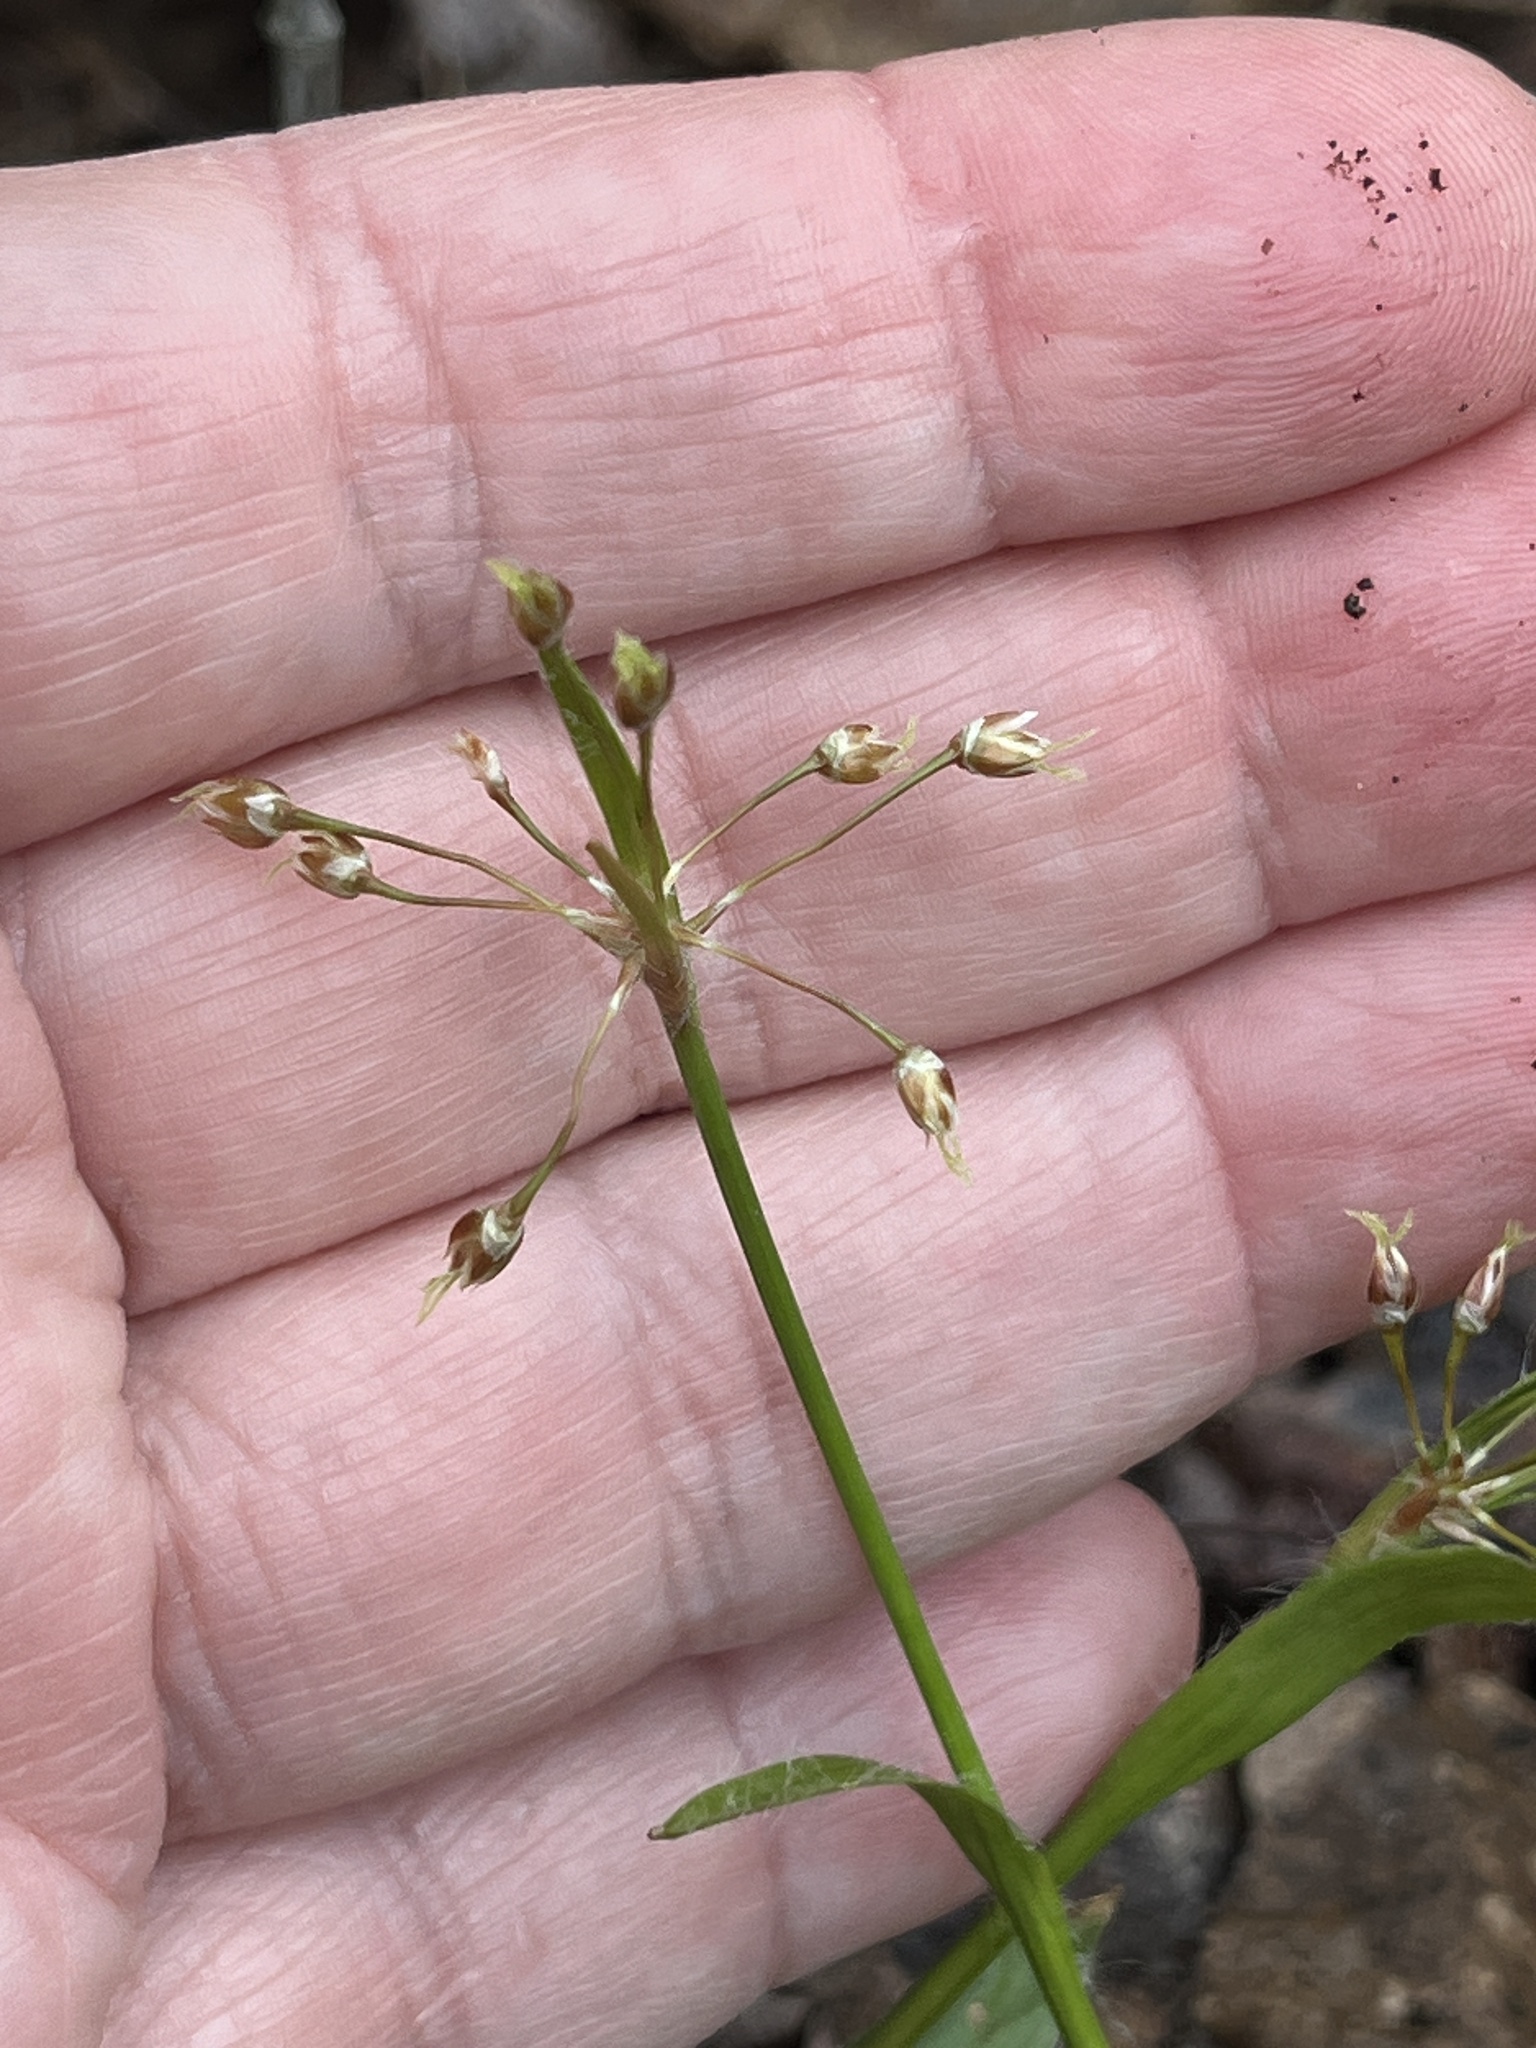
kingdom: Plantae
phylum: Tracheophyta
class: Liliopsida
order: Poales
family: Juncaceae
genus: Luzula
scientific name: Luzula acuminata
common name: Hairy woodrush
